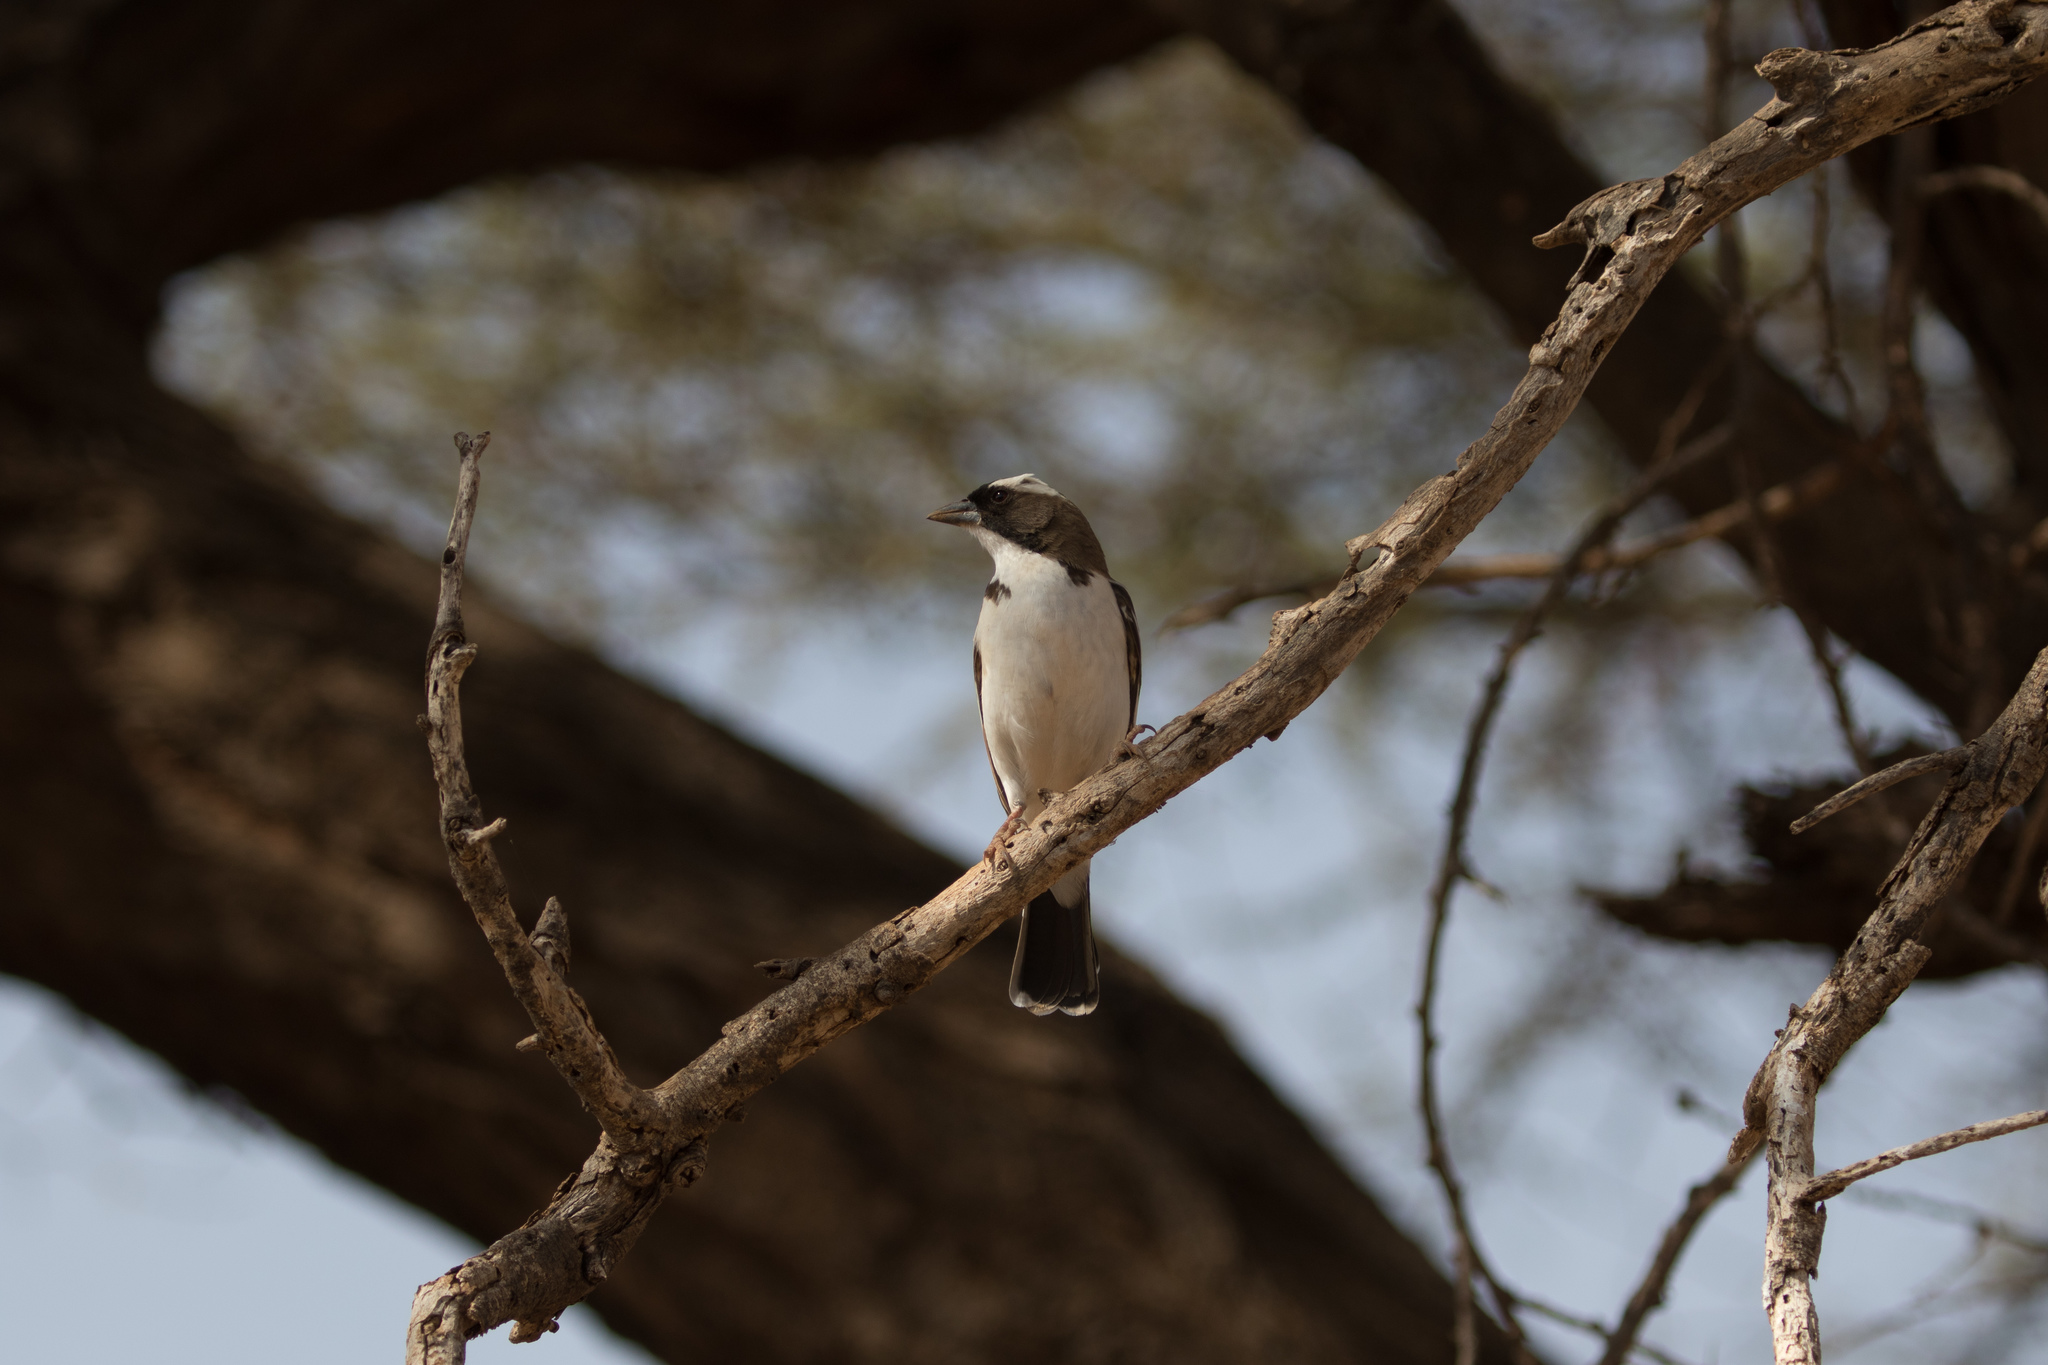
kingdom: Animalia
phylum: Chordata
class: Aves
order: Passeriformes
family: Passeridae
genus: Plocepasser
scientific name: Plocepasser mahali
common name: White-browed sparrow-weaver
